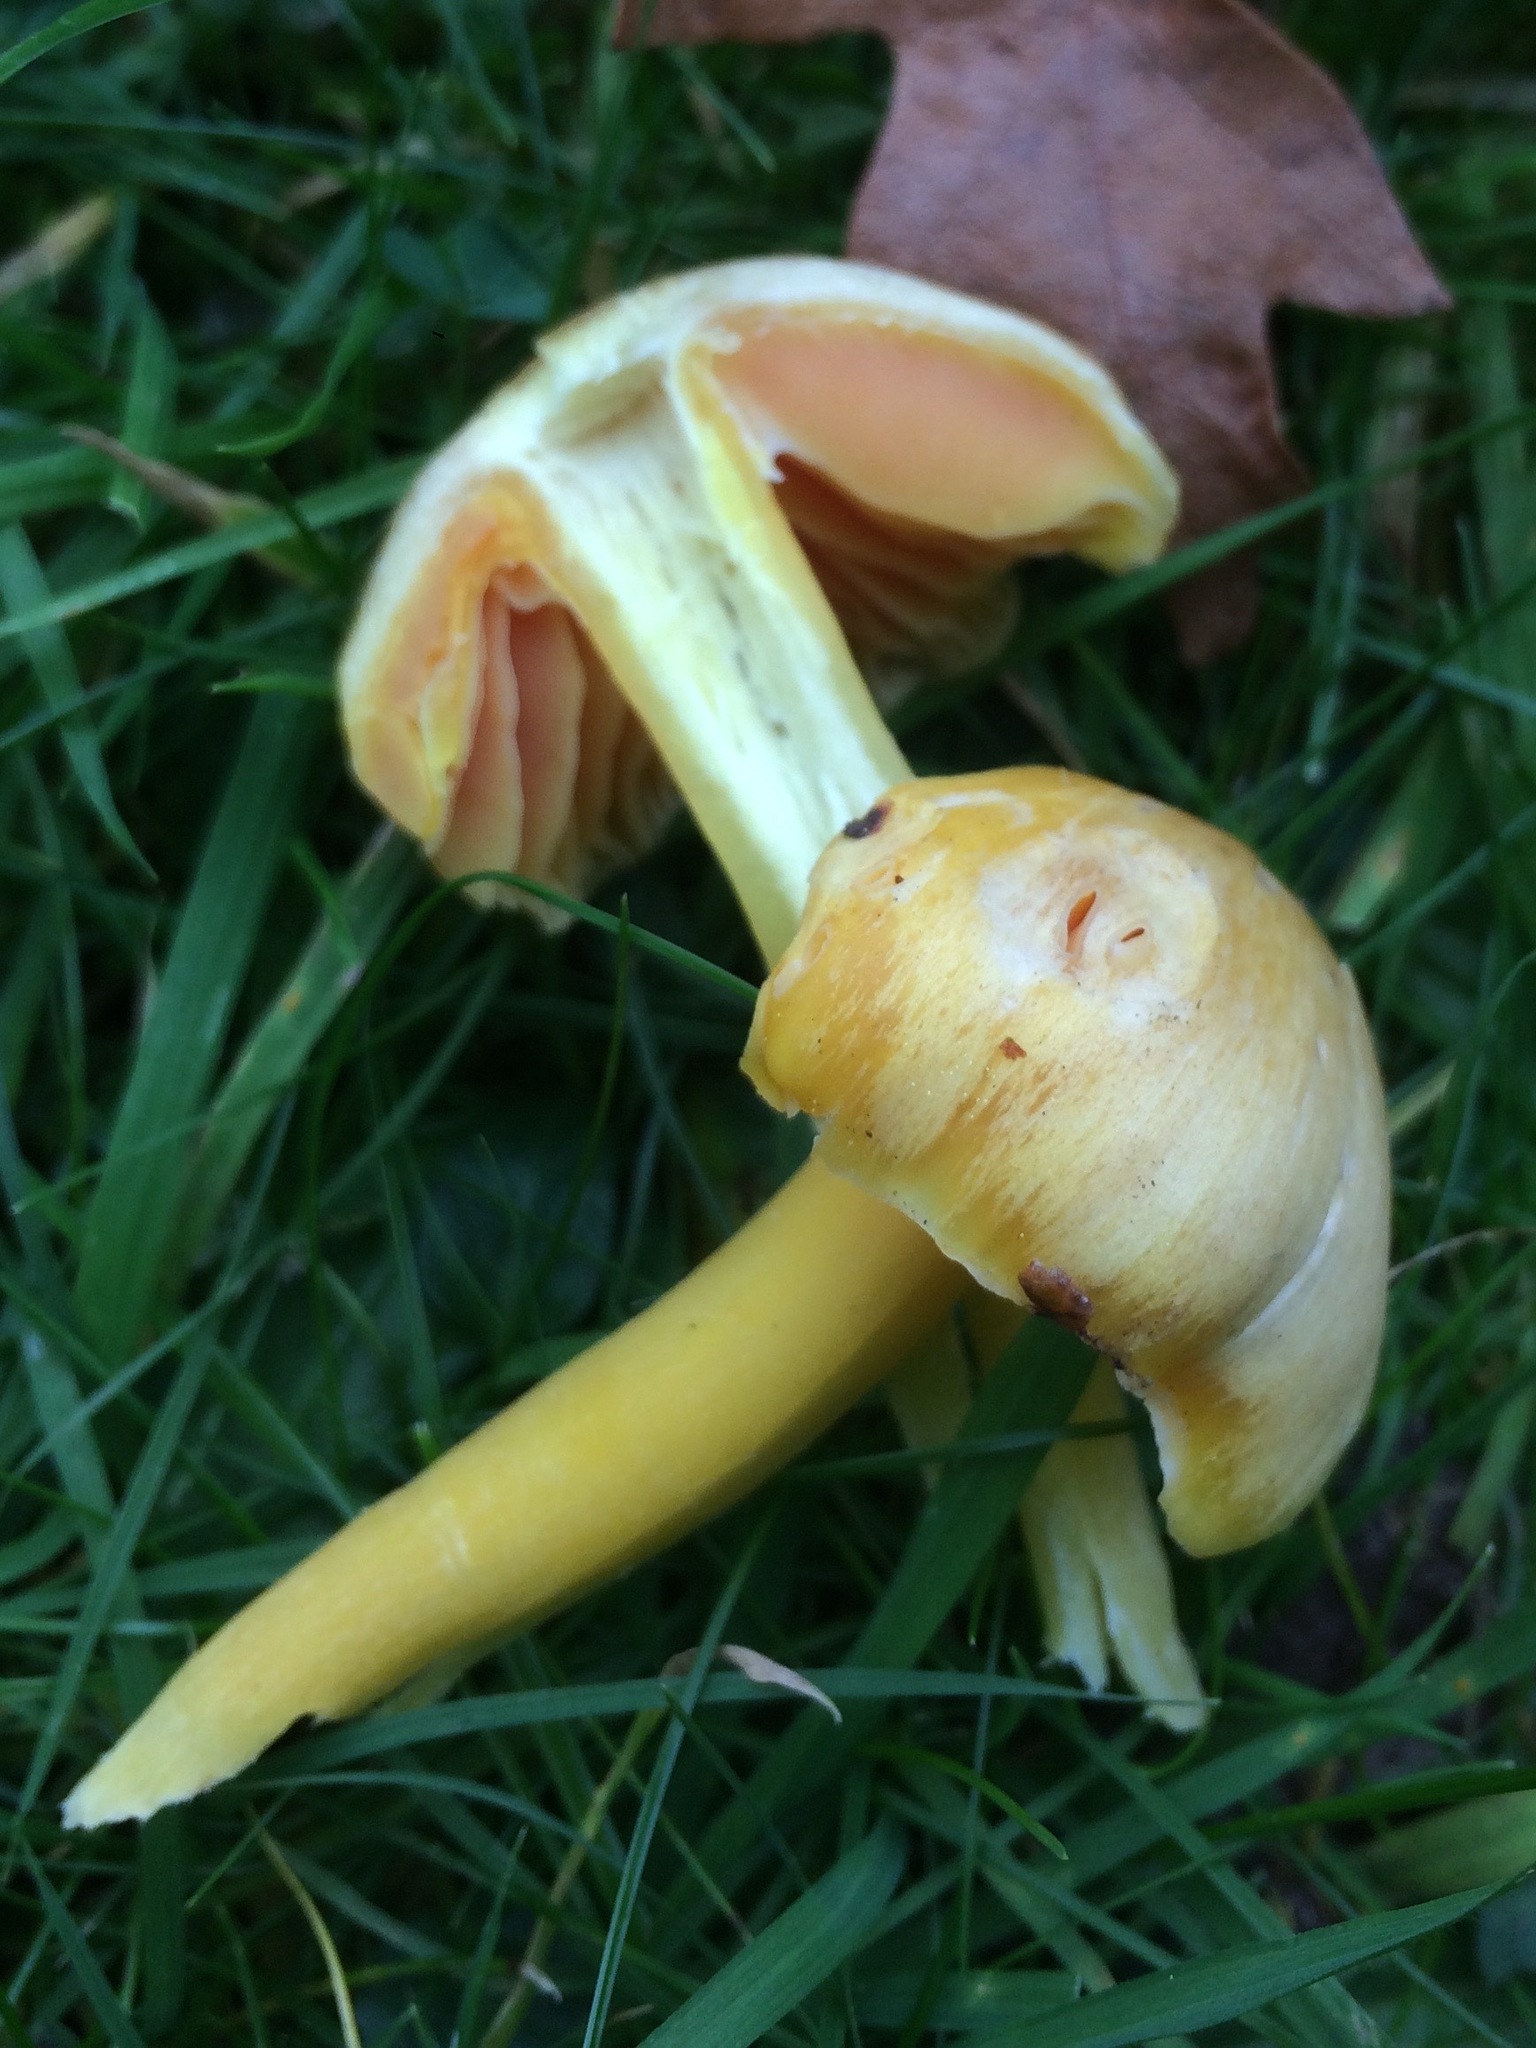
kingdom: Fungi
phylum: Basidiomycota
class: Agaricomycetes
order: Agaricales
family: Hygrophoraceae
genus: Hygrocybe
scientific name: Hygrocybe quieta
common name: Oily waxcap
